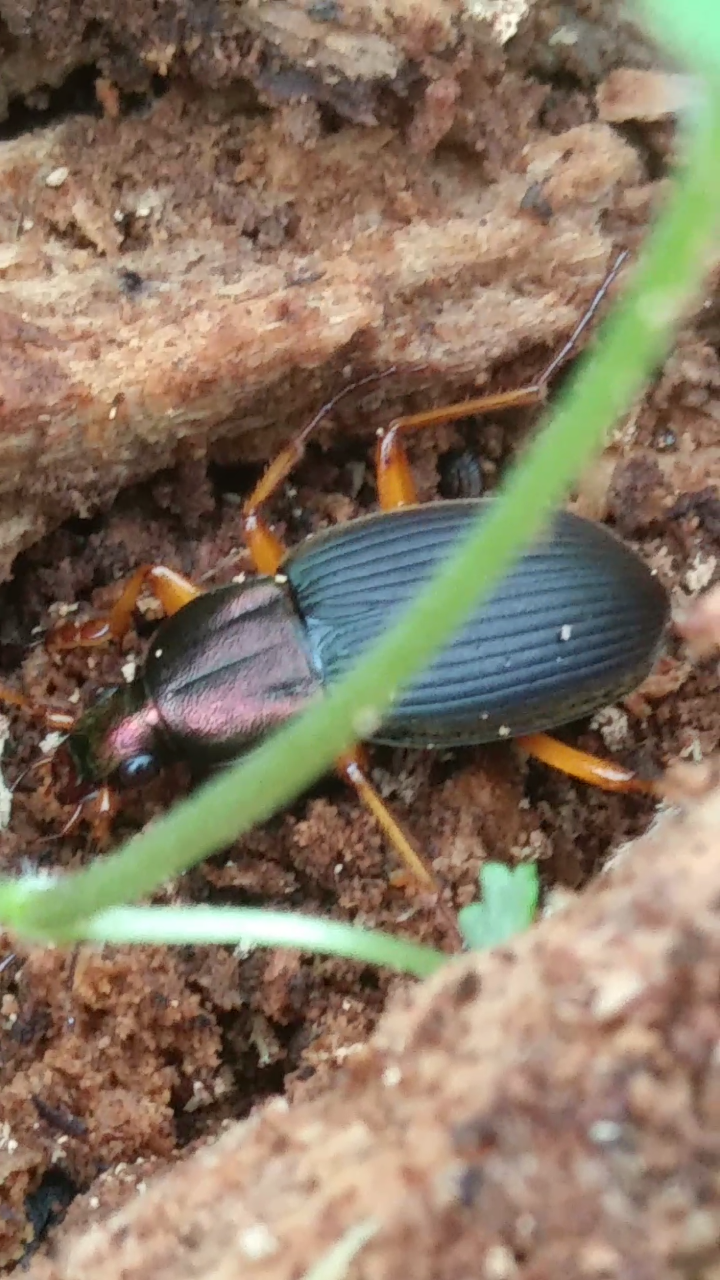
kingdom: Animalia
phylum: Arthropoda
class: Insecta
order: Coleoptera
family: Carabidae
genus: Chlaenius
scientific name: Chlaenius aestivus
